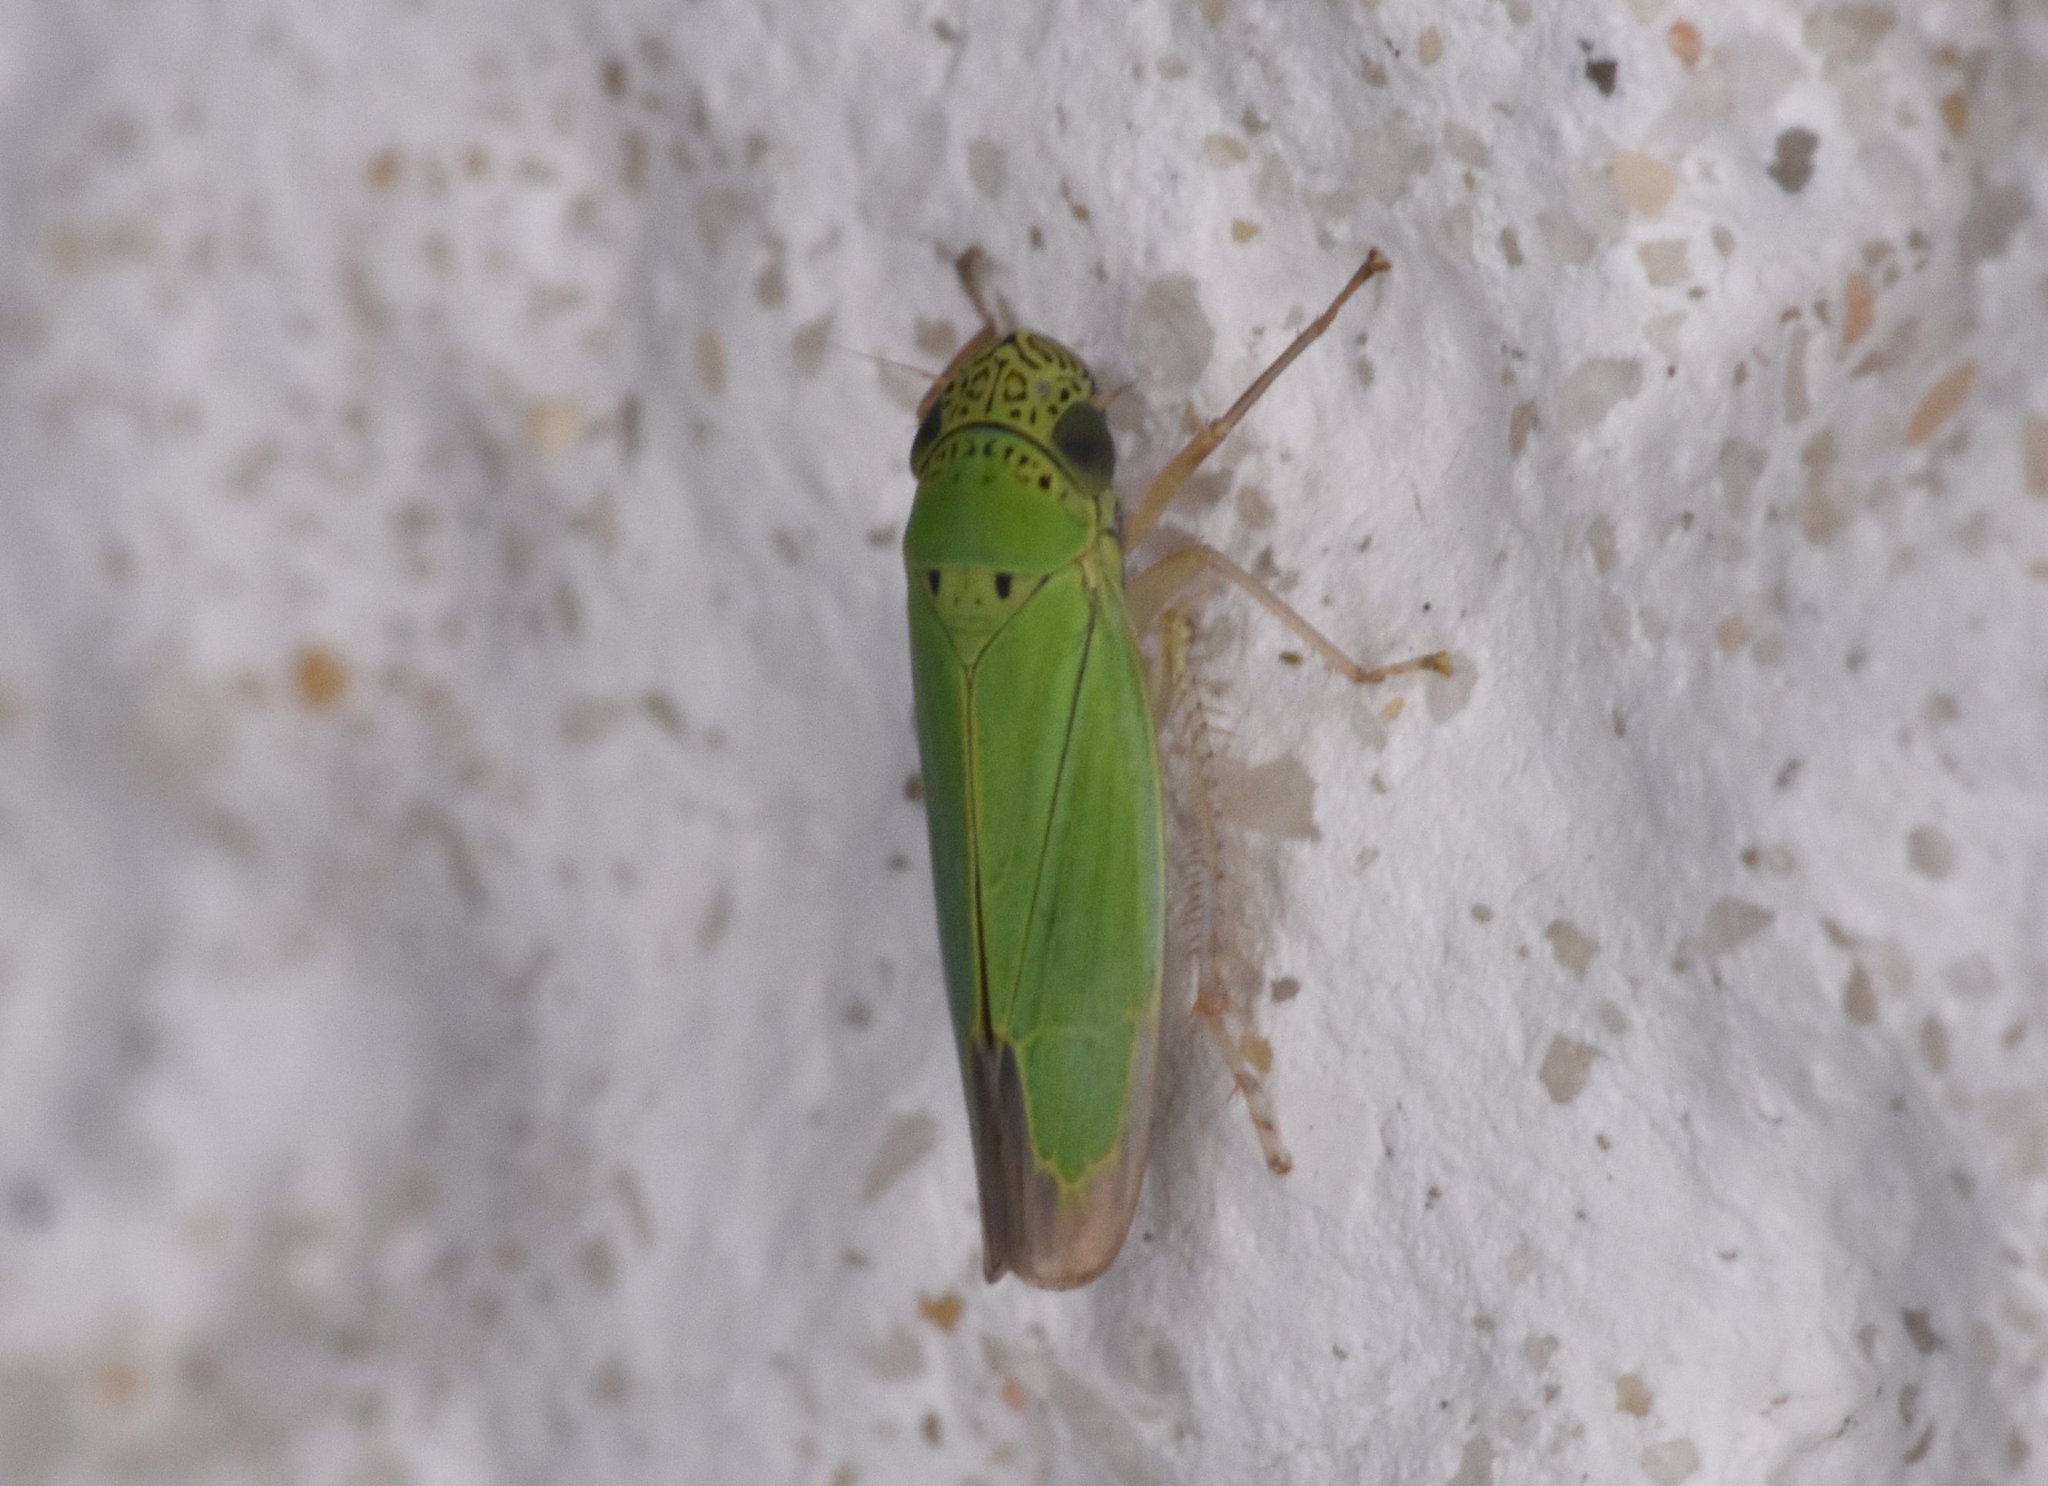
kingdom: Animalia
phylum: Arthropoda
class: Insecta
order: Hemiptera
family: Cicadellidae
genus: Hortensia
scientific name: Hortensia similis
